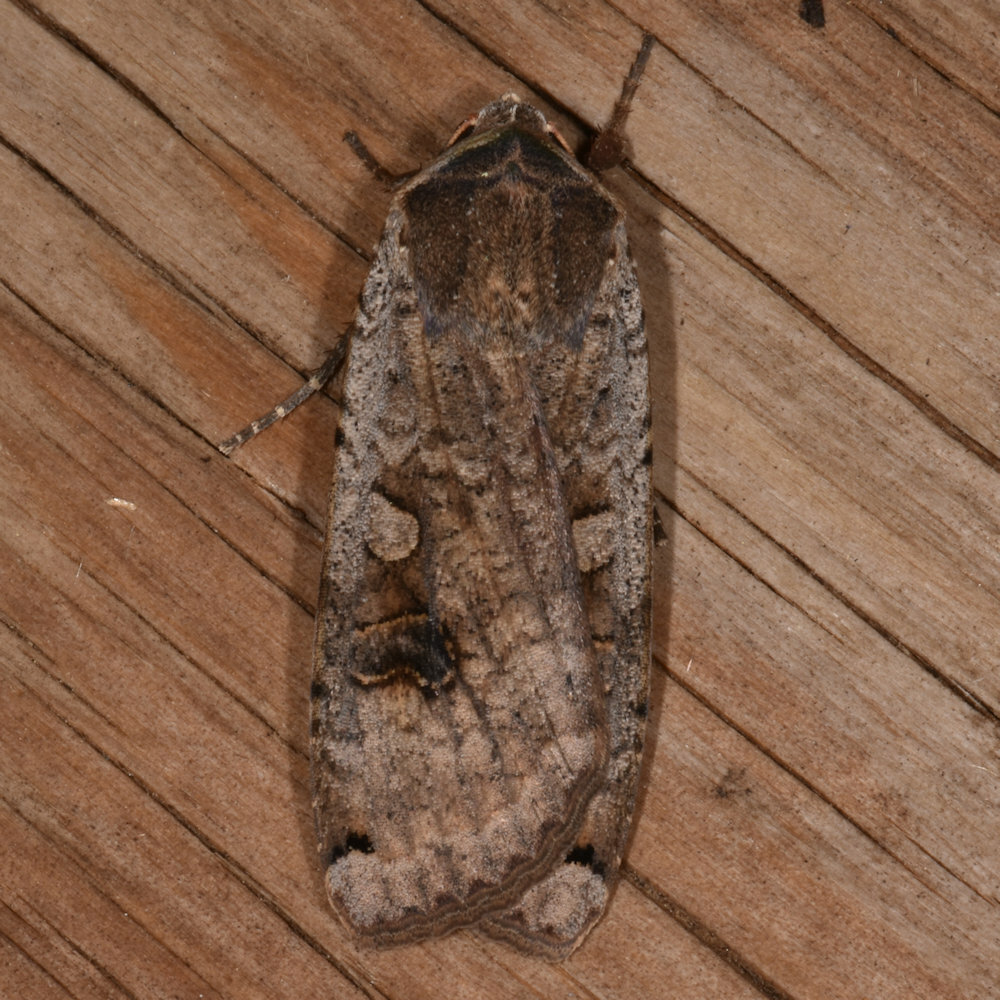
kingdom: Animalia
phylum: Arthropoda
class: Insecta
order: Lepidoptera
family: Noctuidae
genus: Noctua
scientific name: Noctua pronuba
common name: Large yellow underwing
